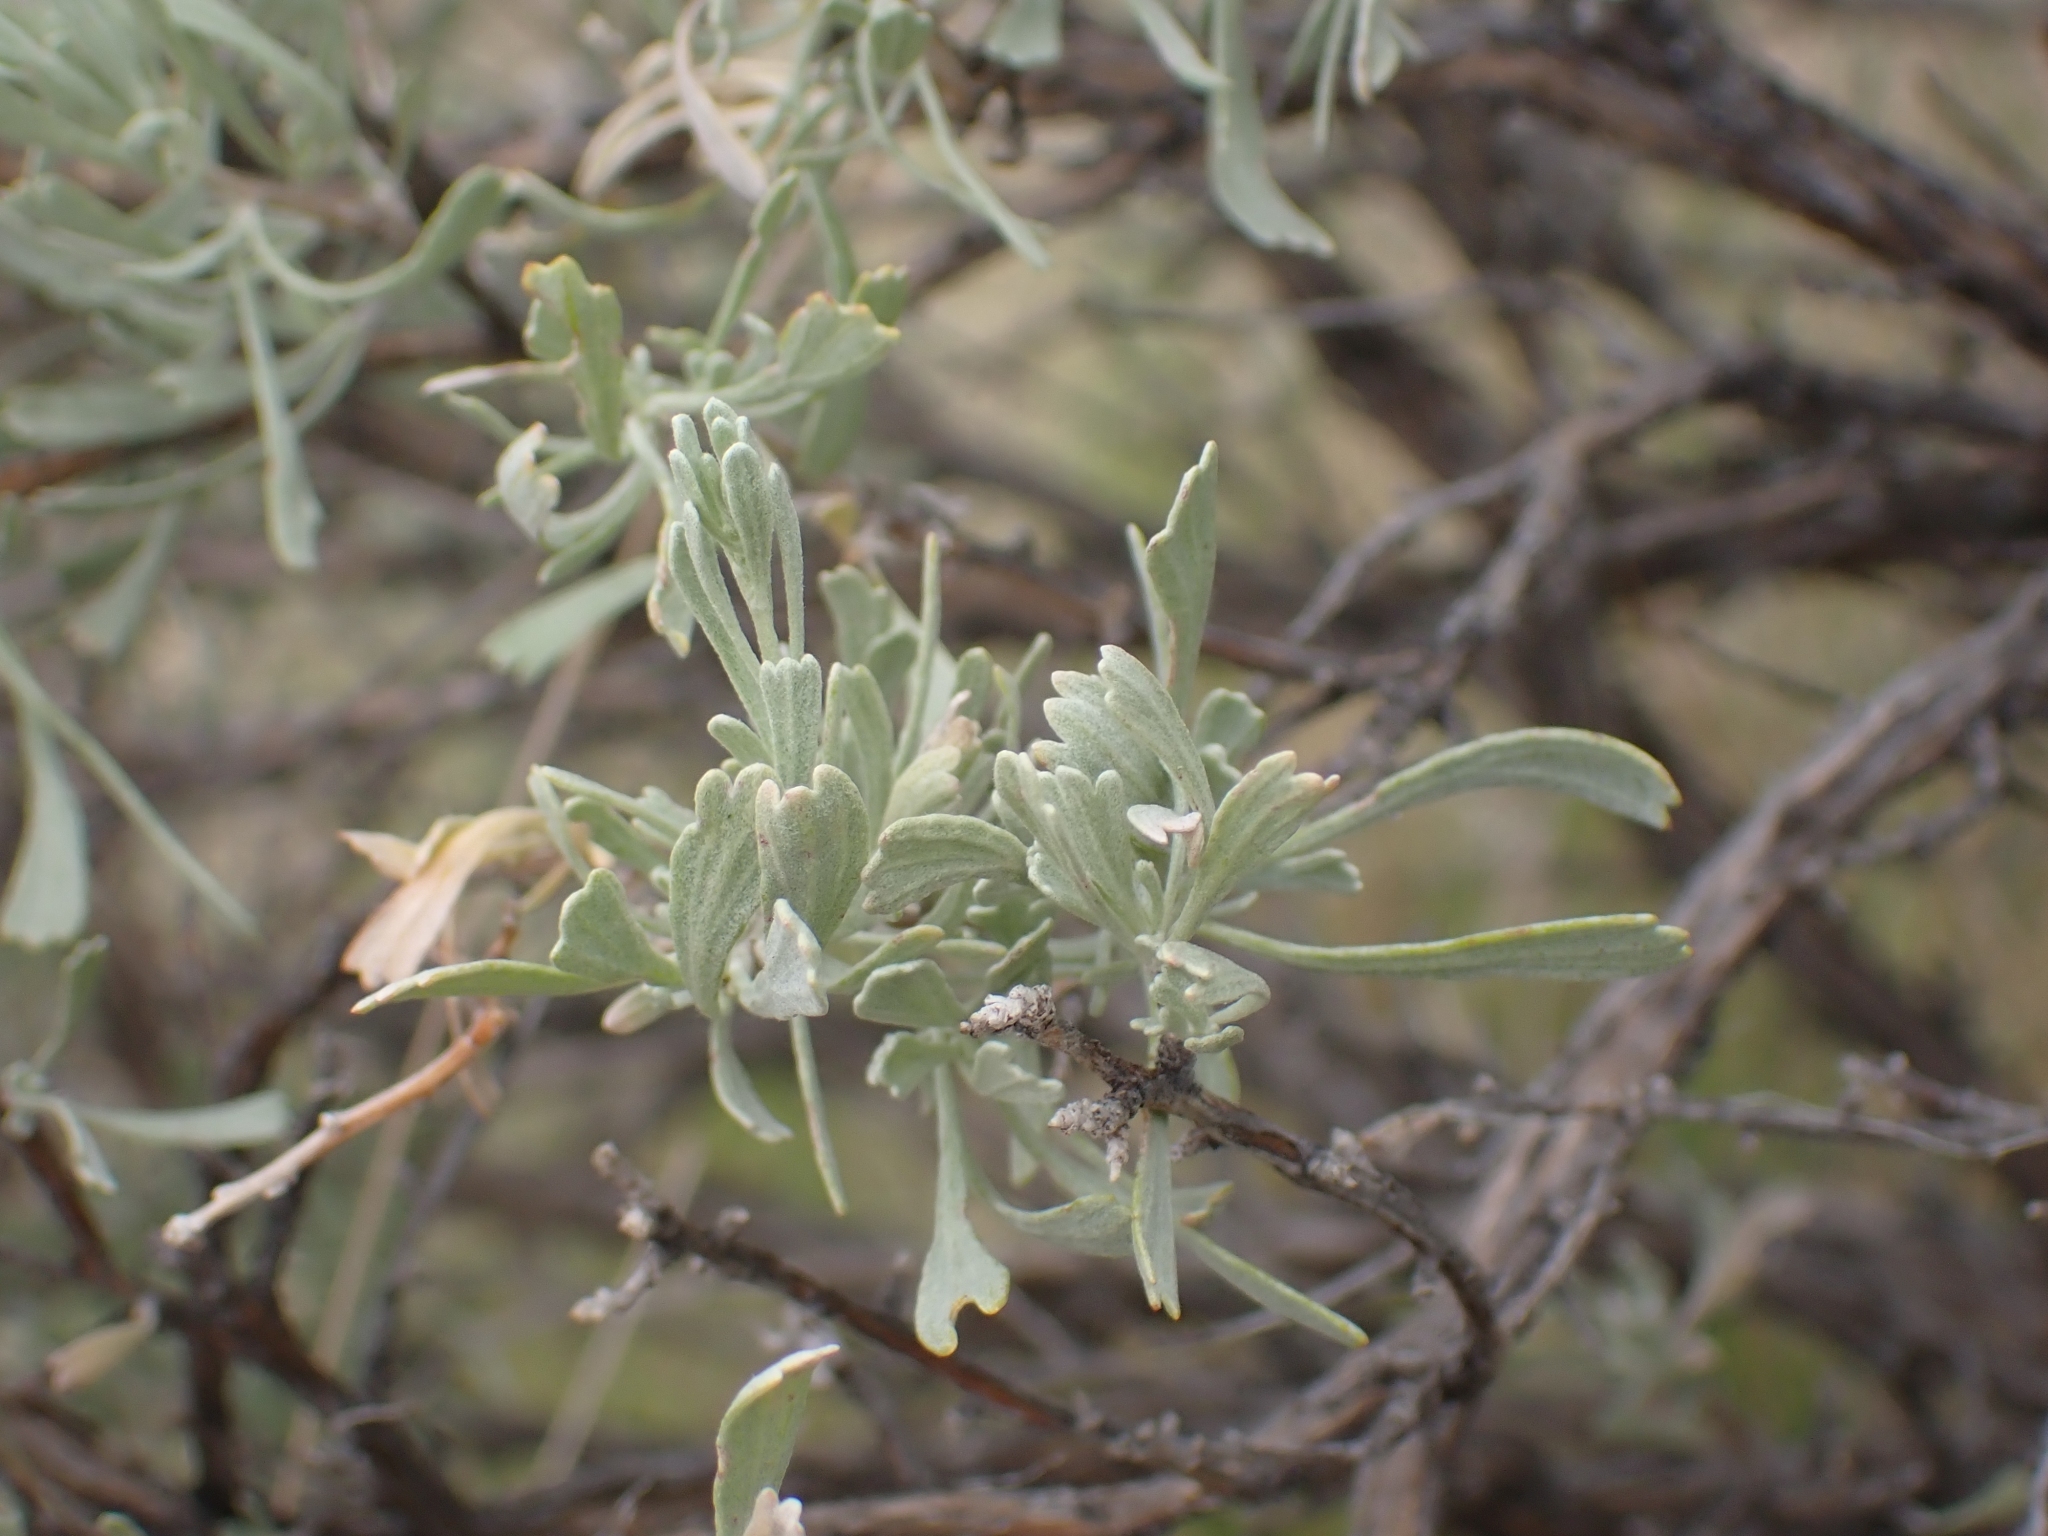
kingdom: Plantae
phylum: Tracheophyta
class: Magnoliopsida
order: Asterales
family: Asteraceae
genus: Artemisia
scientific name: Artemisia tridentata
